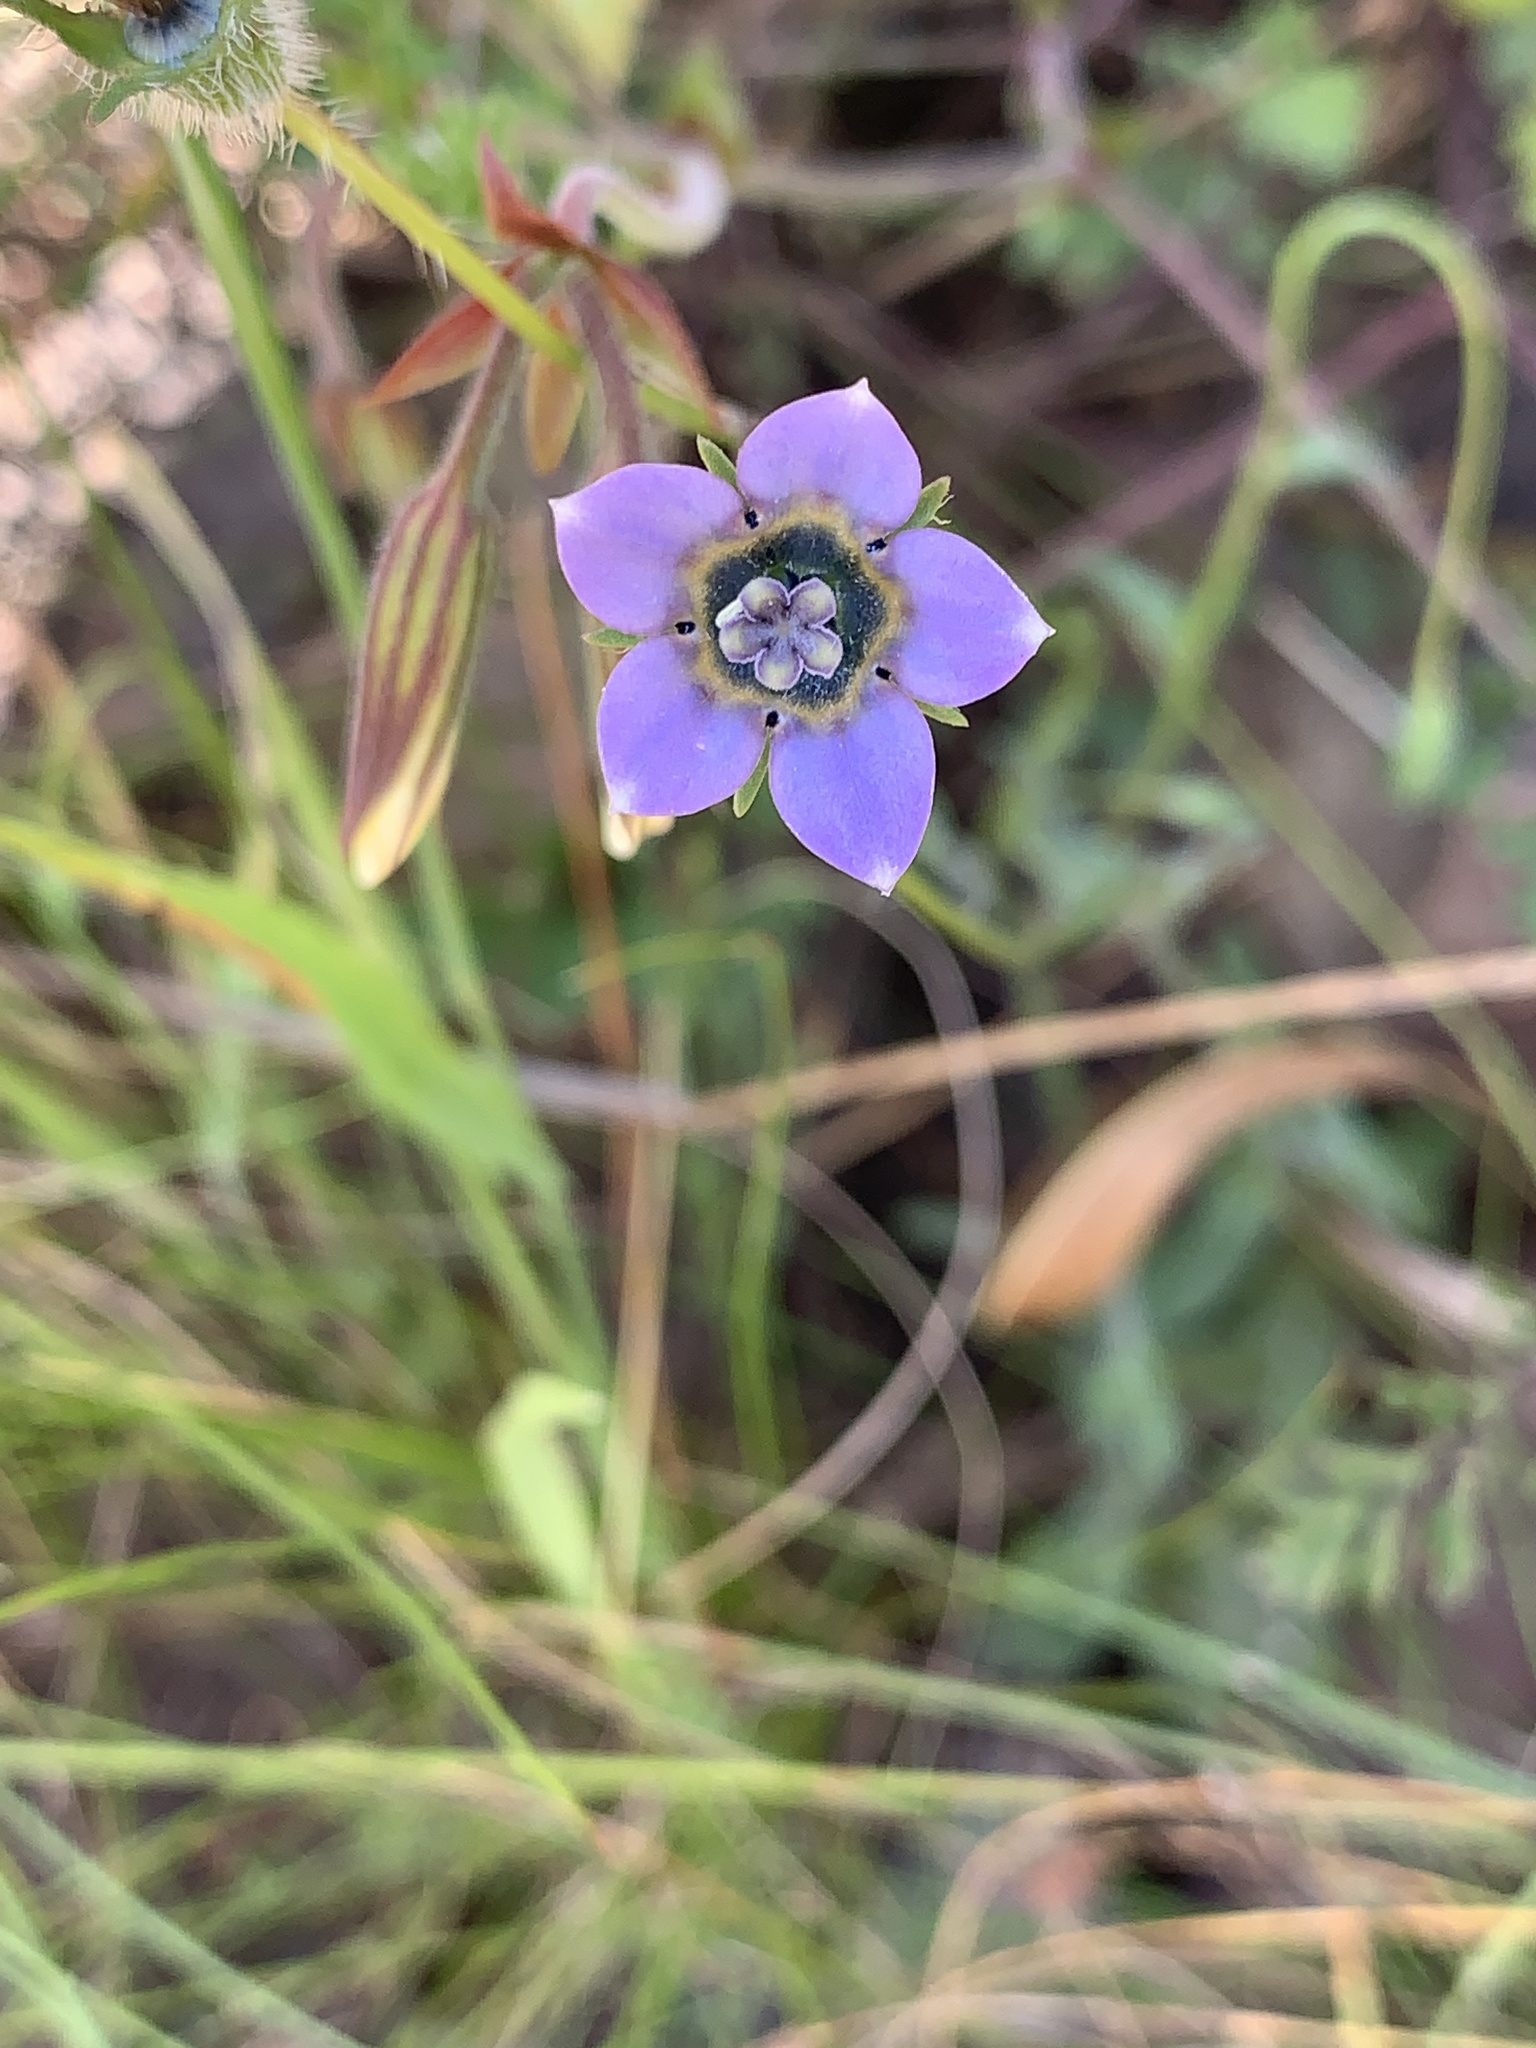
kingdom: Plantae
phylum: Tracheophyta
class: Magnoliopsida
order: Asterales
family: Campanulaceae
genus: Wahlenbergia
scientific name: Wahlenbergia capensis
